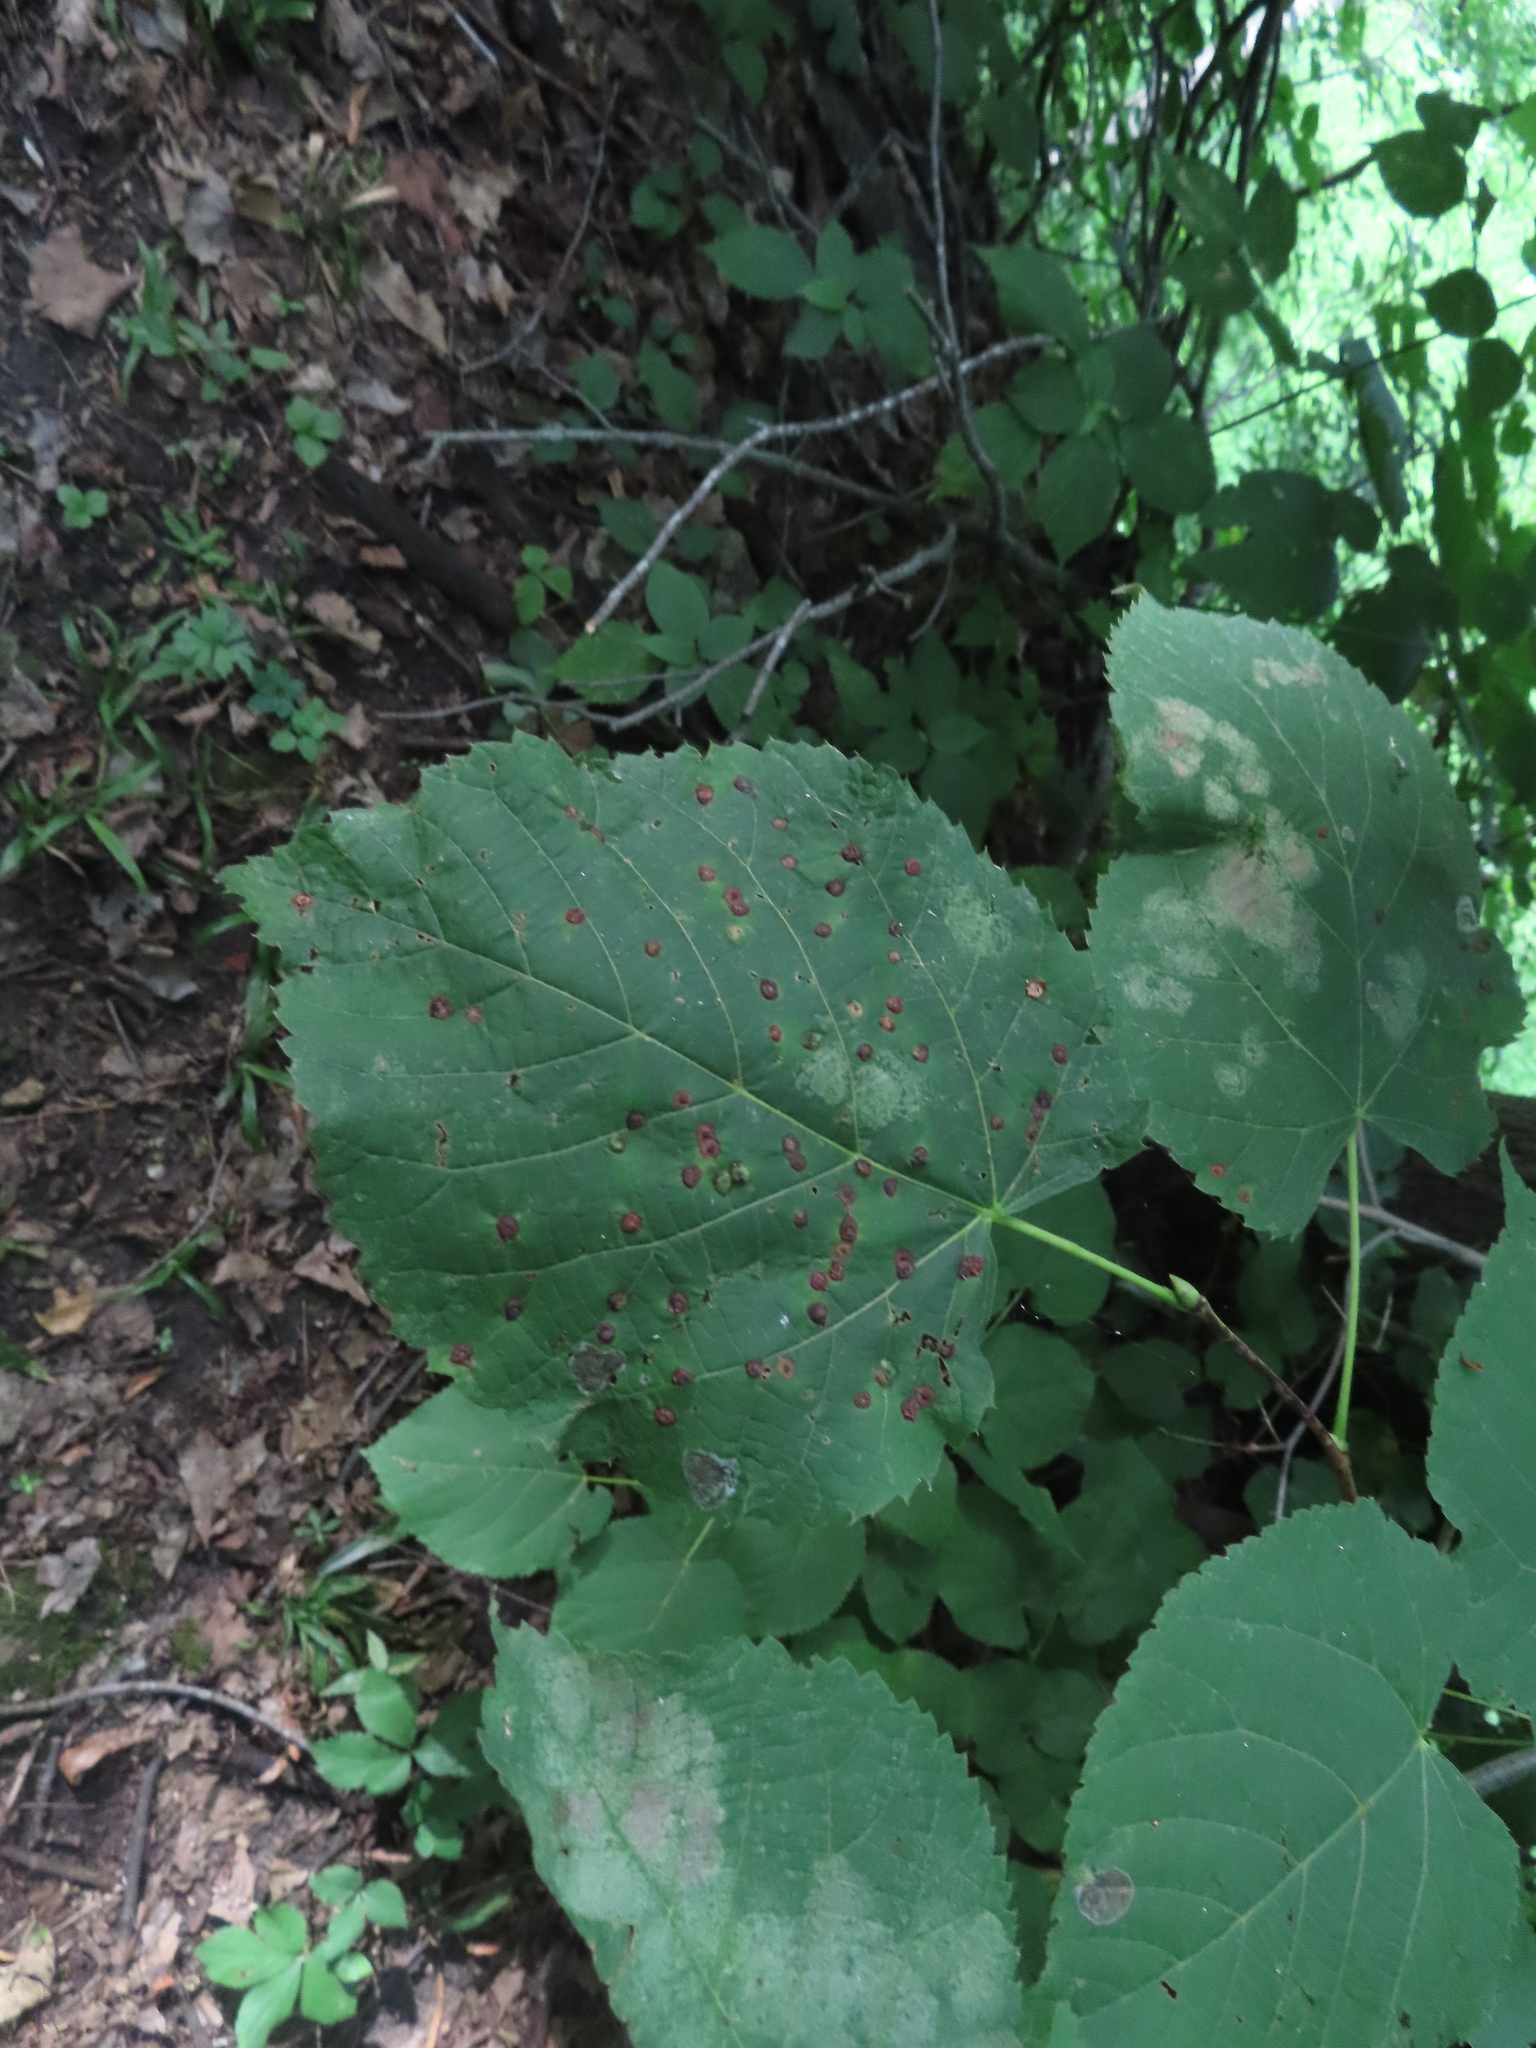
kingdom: Animalia
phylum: Arthropoda
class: Insecta
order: Diptera
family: Cecidomyiidae
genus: Contarinia
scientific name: Contarinia verrucicola
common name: Linden wart gall midge
